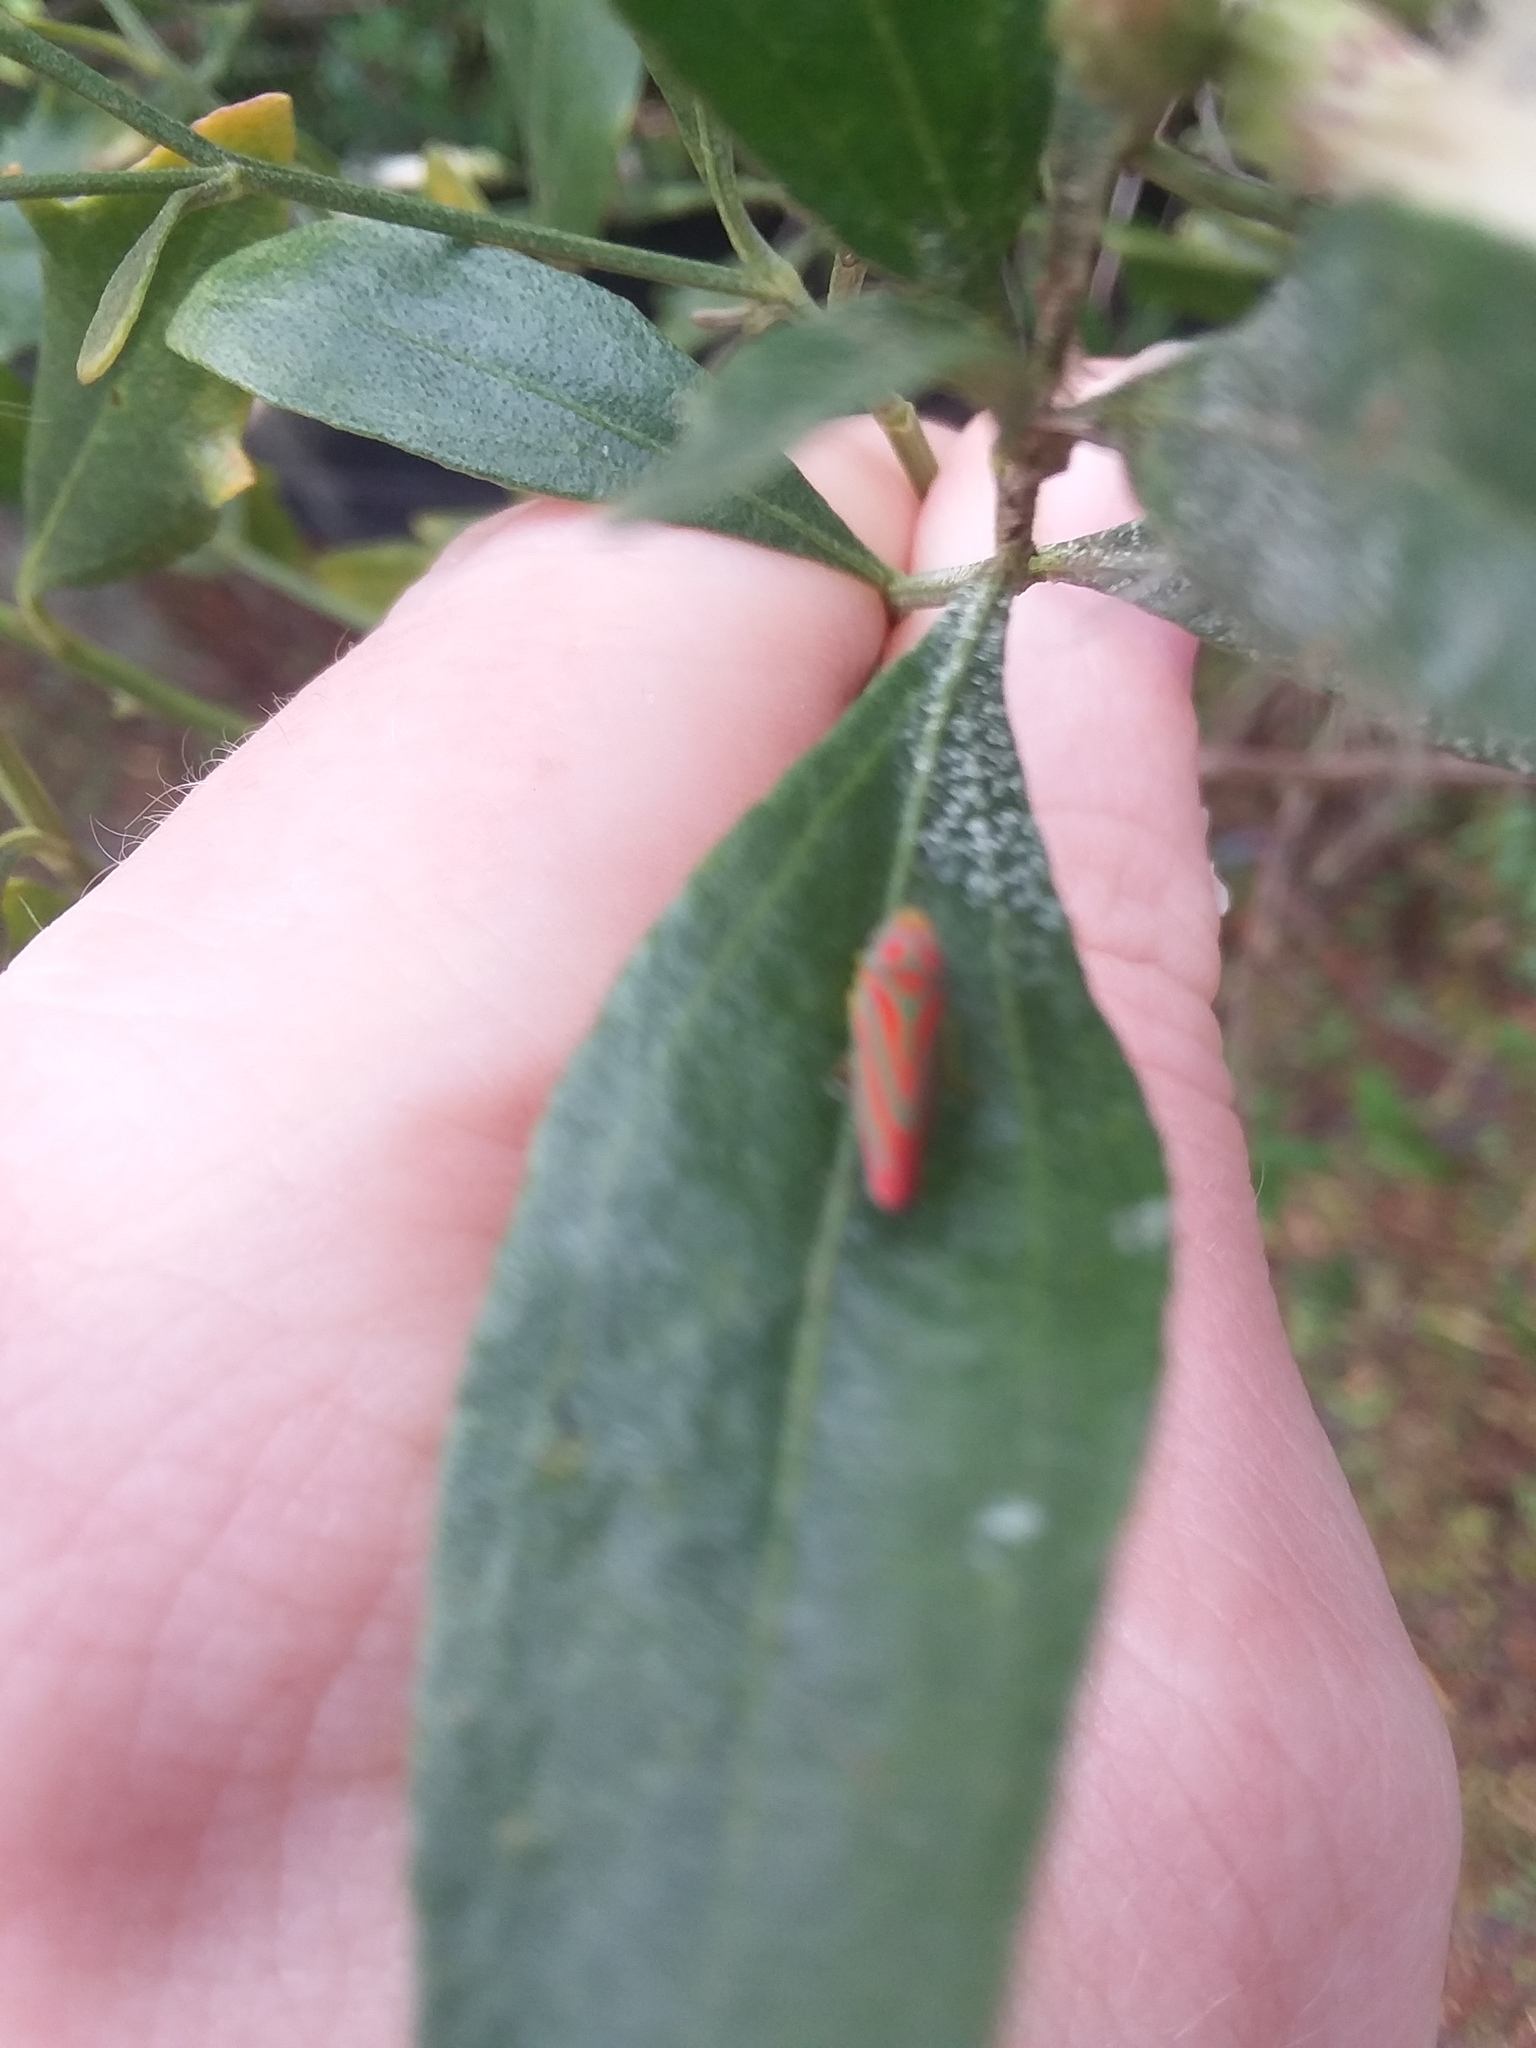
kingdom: Animalia
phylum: Arthropoda
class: Insecta
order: Hemiptera
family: Cicadellidae
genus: Graphocephala
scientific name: Graphocephala coccinea
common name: Candy-striped leafhopper
